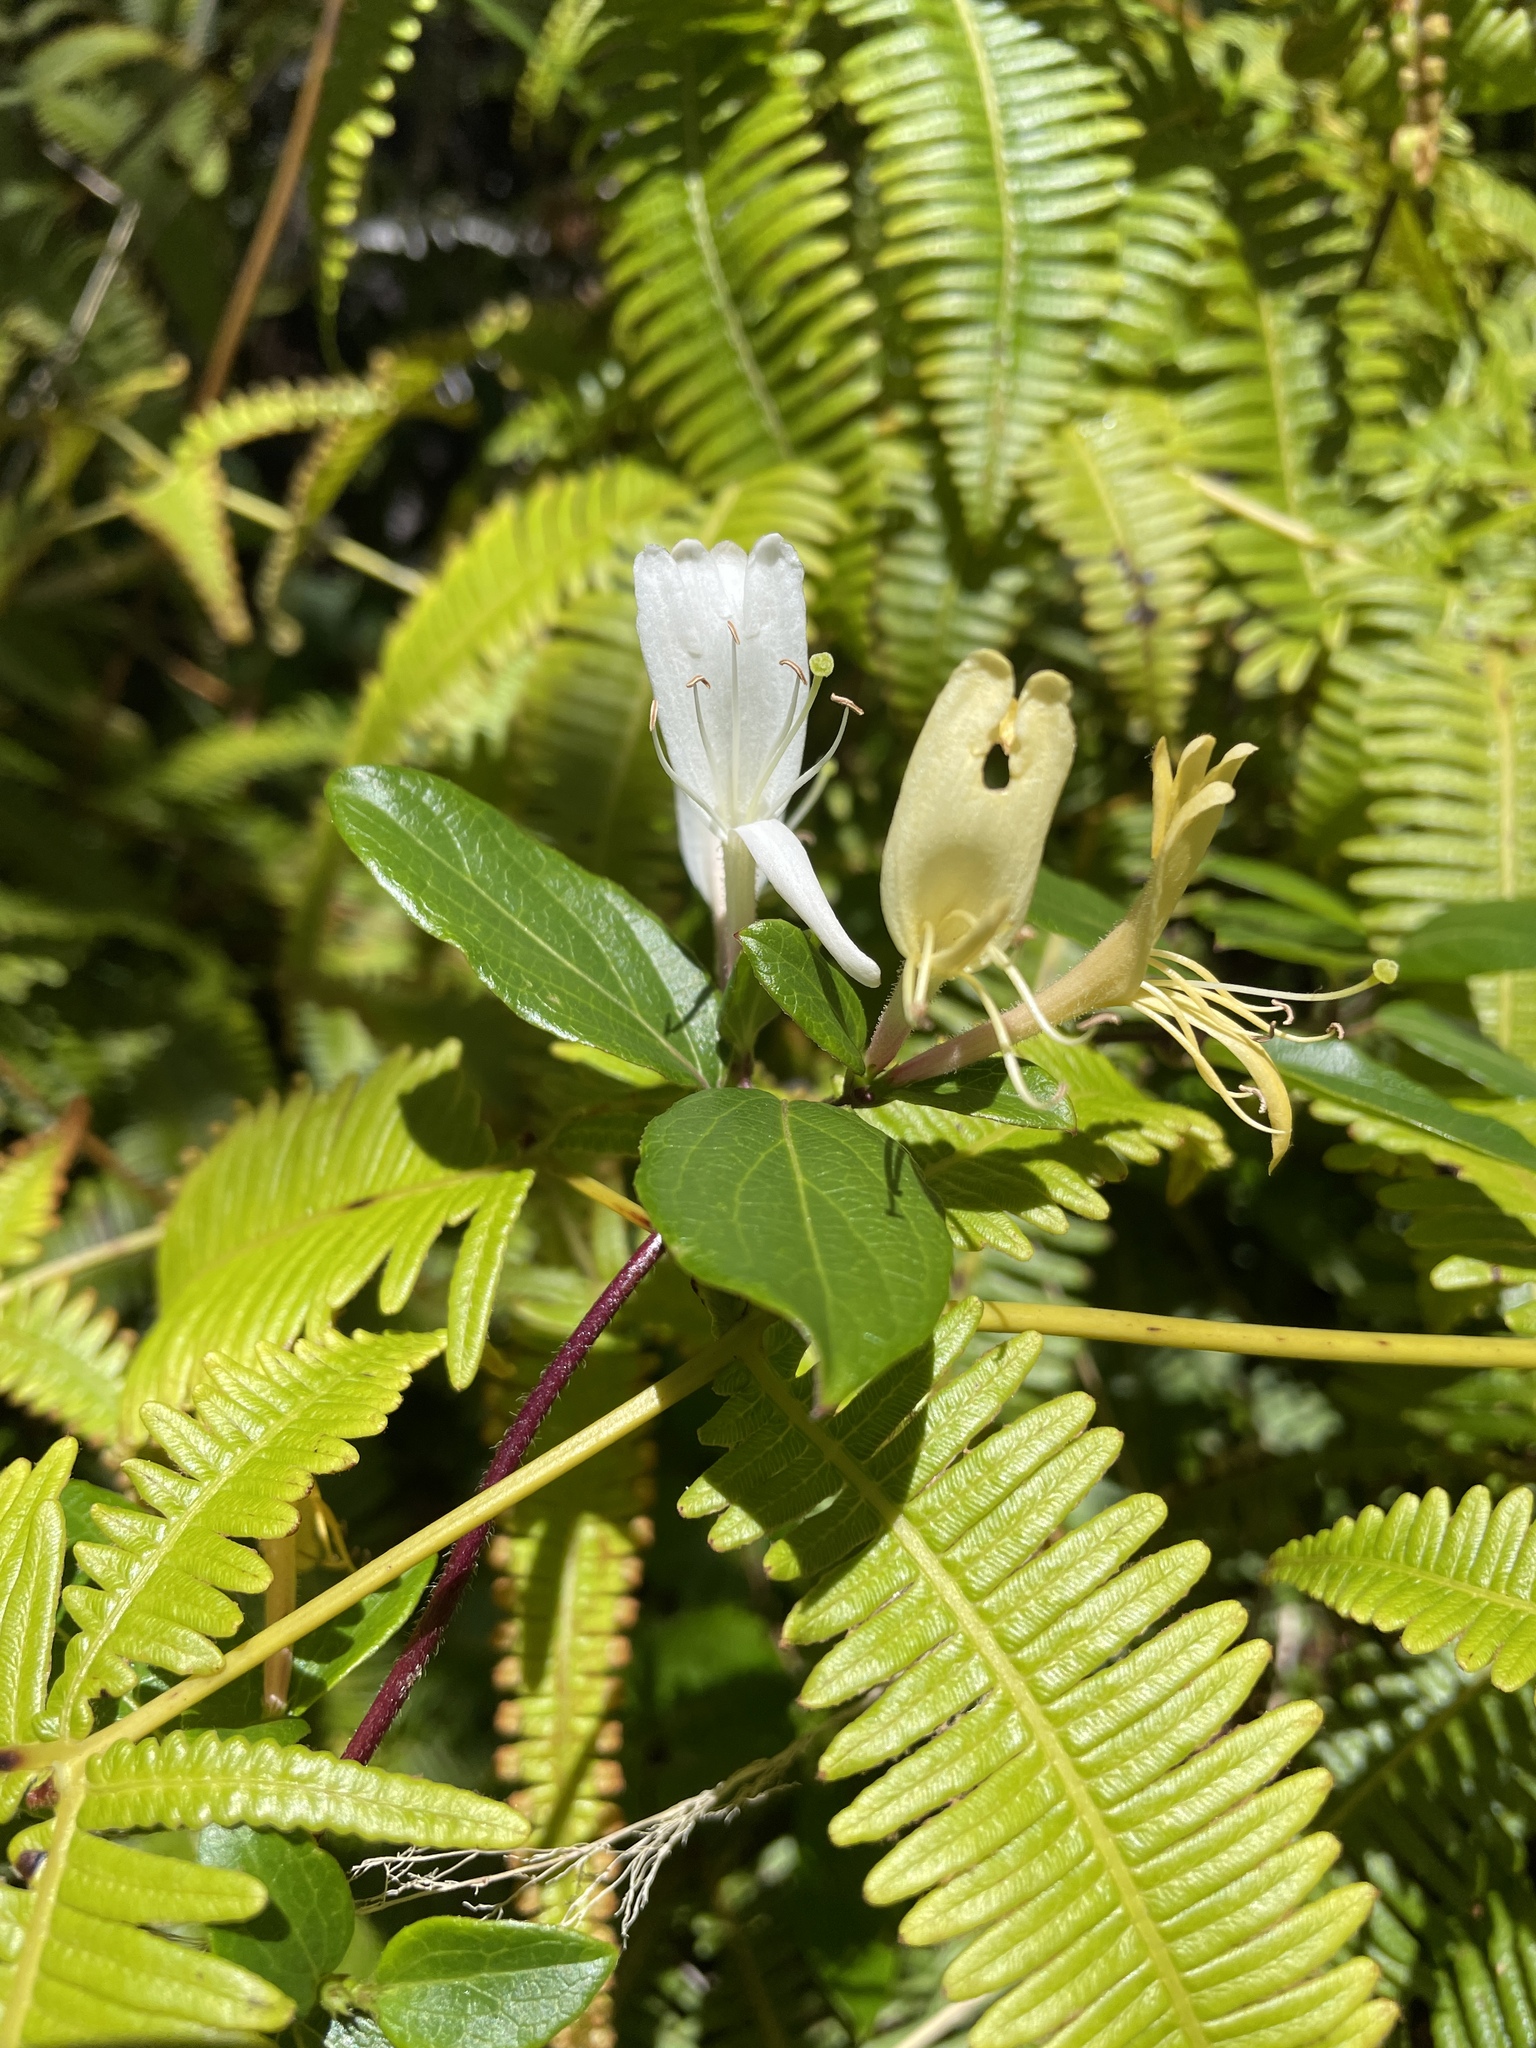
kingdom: Plantae
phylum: Tracheophyta
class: Magnoliopsida
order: Dipsacales
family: Caprifoliaceae
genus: Lonicera
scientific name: Lonicera japonica
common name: Japanese honeysuckle
